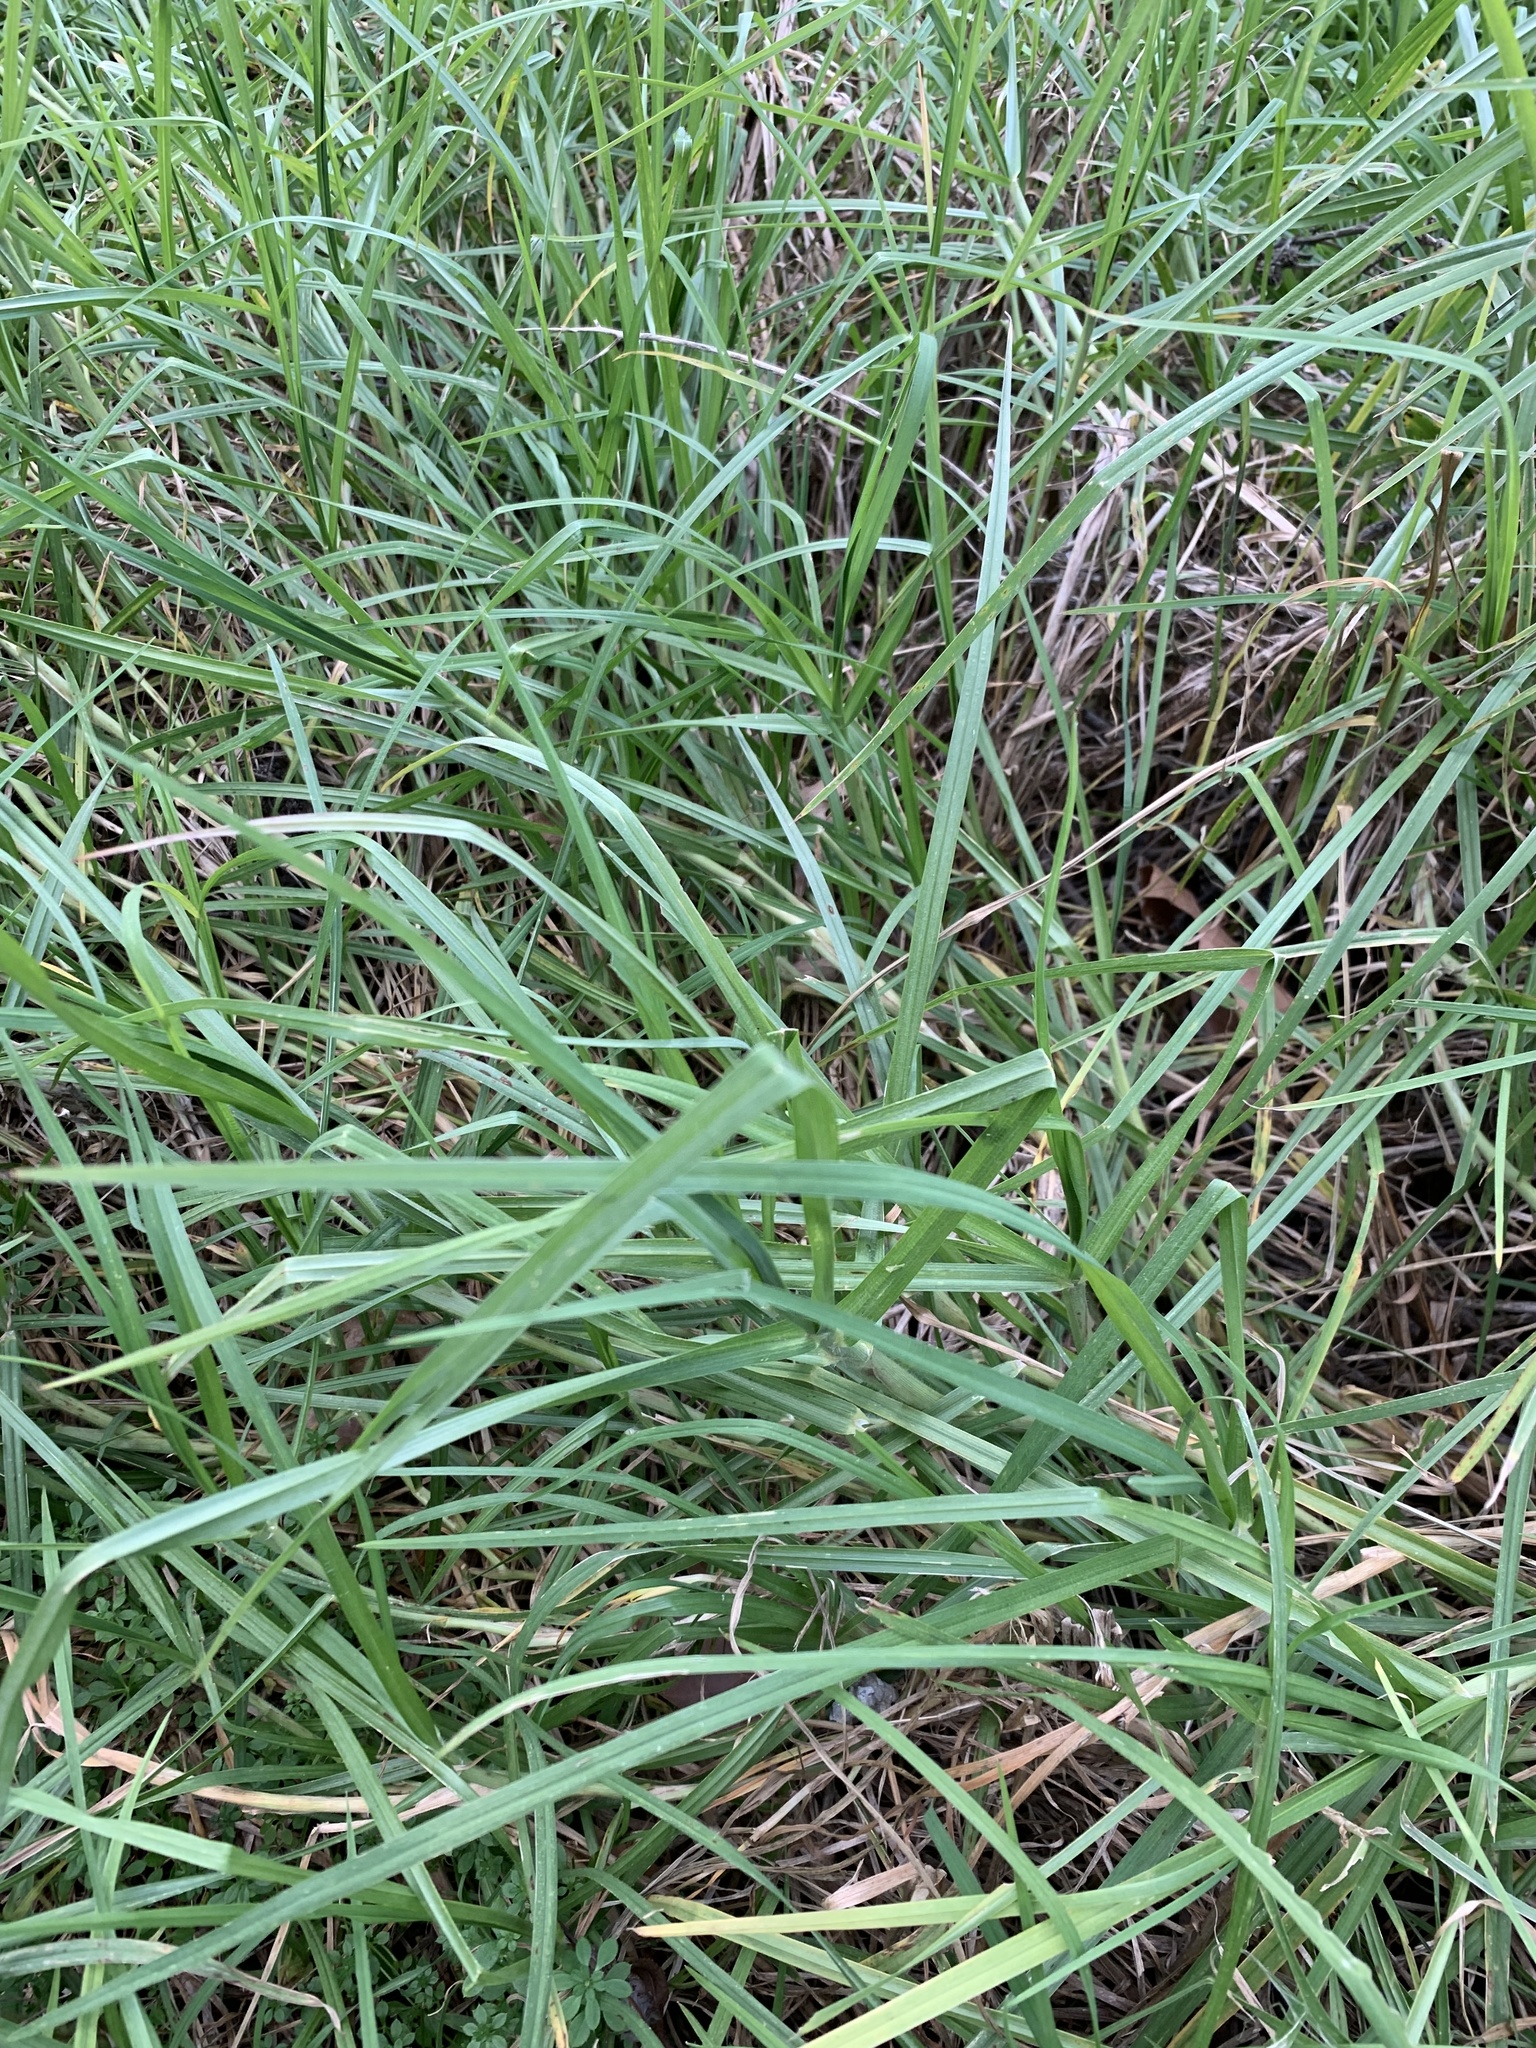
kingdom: Plantae
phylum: Tracheophyta
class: Liliopsida
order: Poales
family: Poaceae
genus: Cenchrus
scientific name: Cenchrus clandestinus
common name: Kikuyugrass
